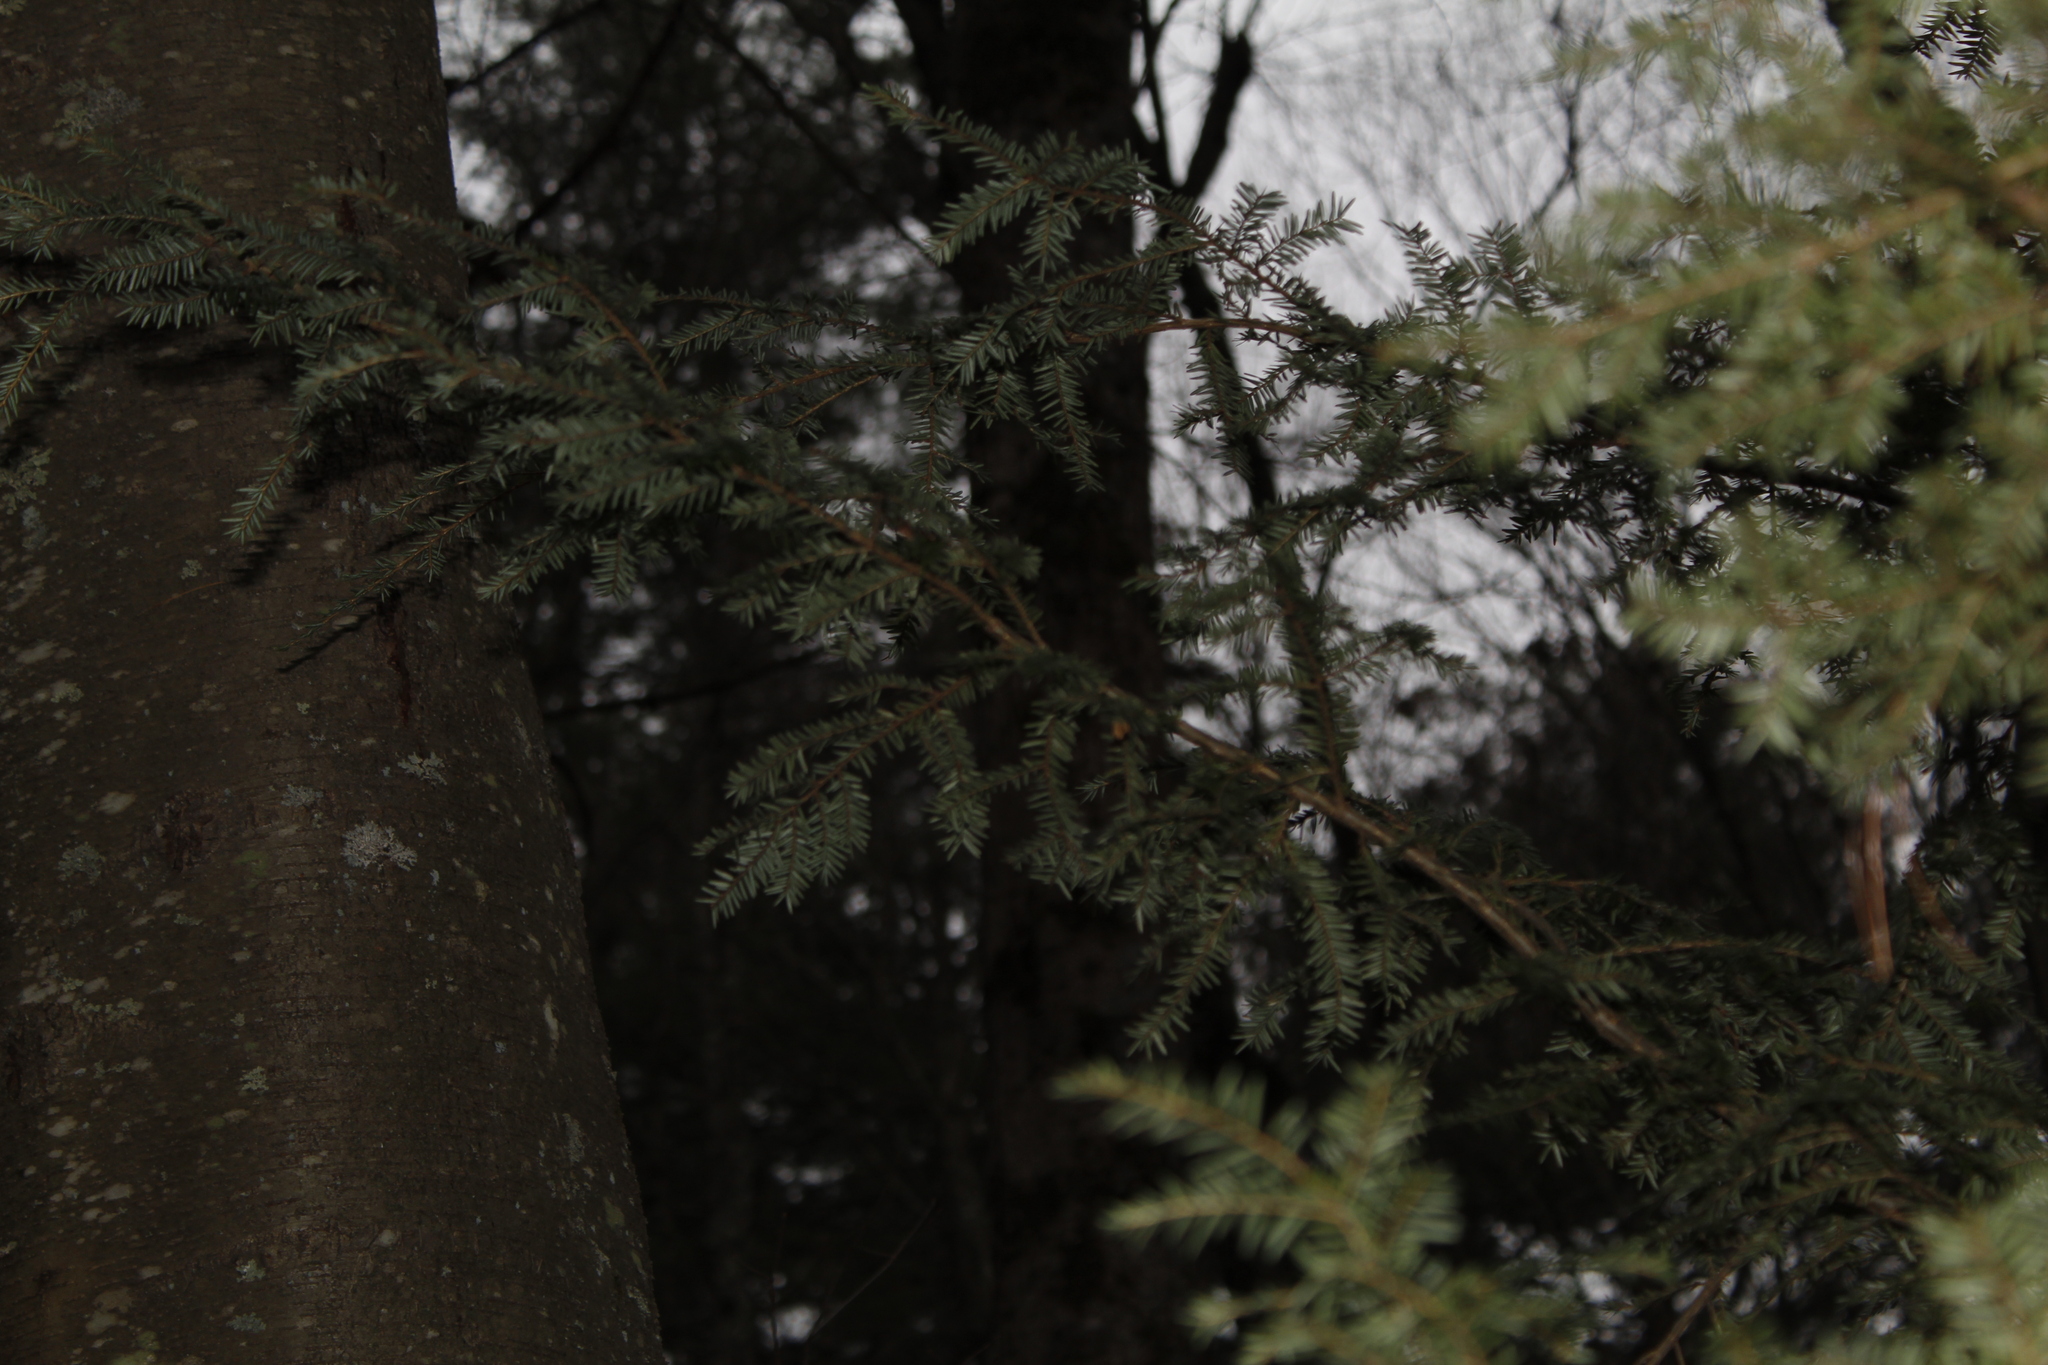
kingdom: Plantae
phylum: Tracheophyta
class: Pinopsida
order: Pinales
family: Pinaceae
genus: Tsuga
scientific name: Tsuga canadensis
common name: Eastern hemlock
